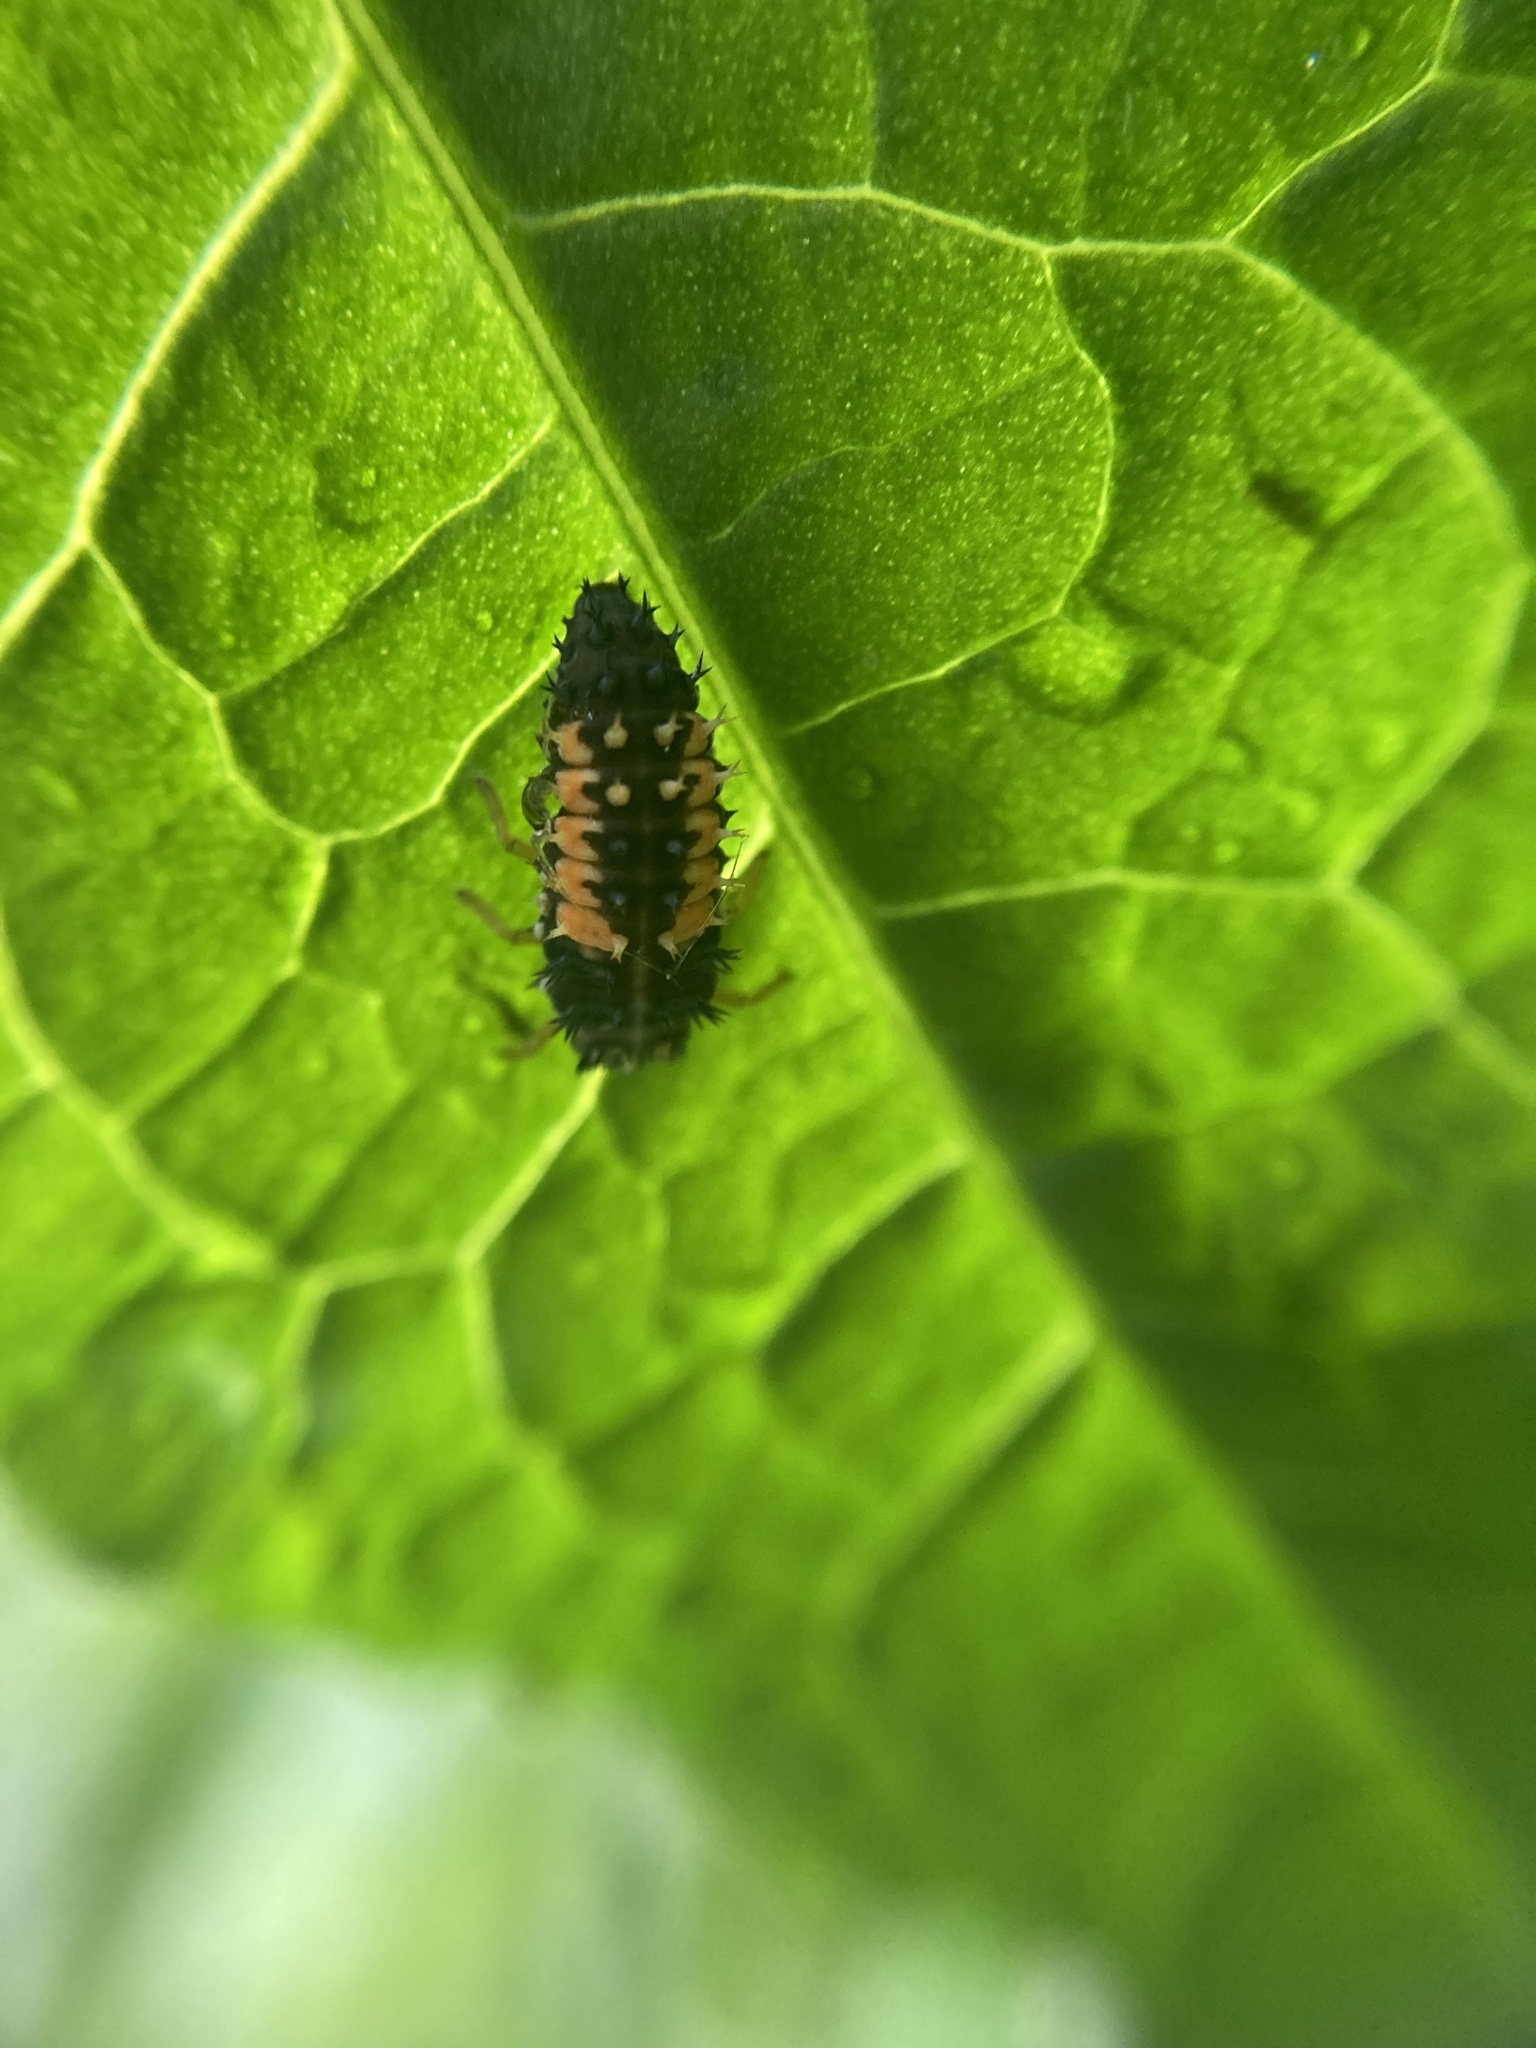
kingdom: Animalia
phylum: Arthropoda
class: Insecta
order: Coleoptera
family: Coccinellidae
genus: Harmonia
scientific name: Harmonia axyridis
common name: Harlequin ladybird
